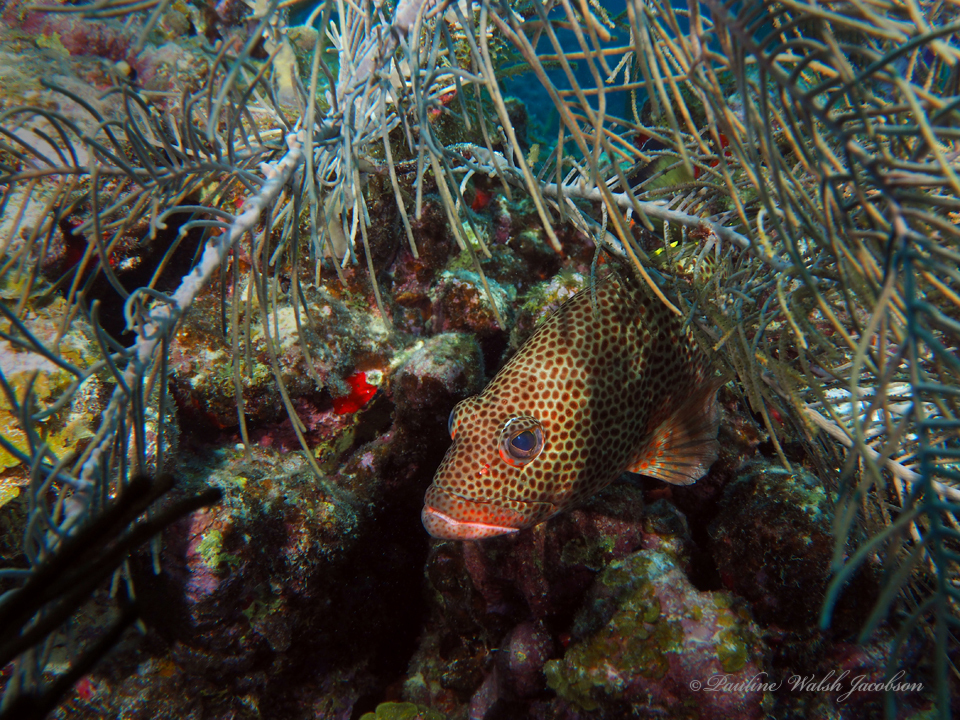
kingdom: Animalia
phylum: Chordata
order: Perciformes
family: Serranidae
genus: Epinephelus
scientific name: Epinephelus guttatus
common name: Red hind
